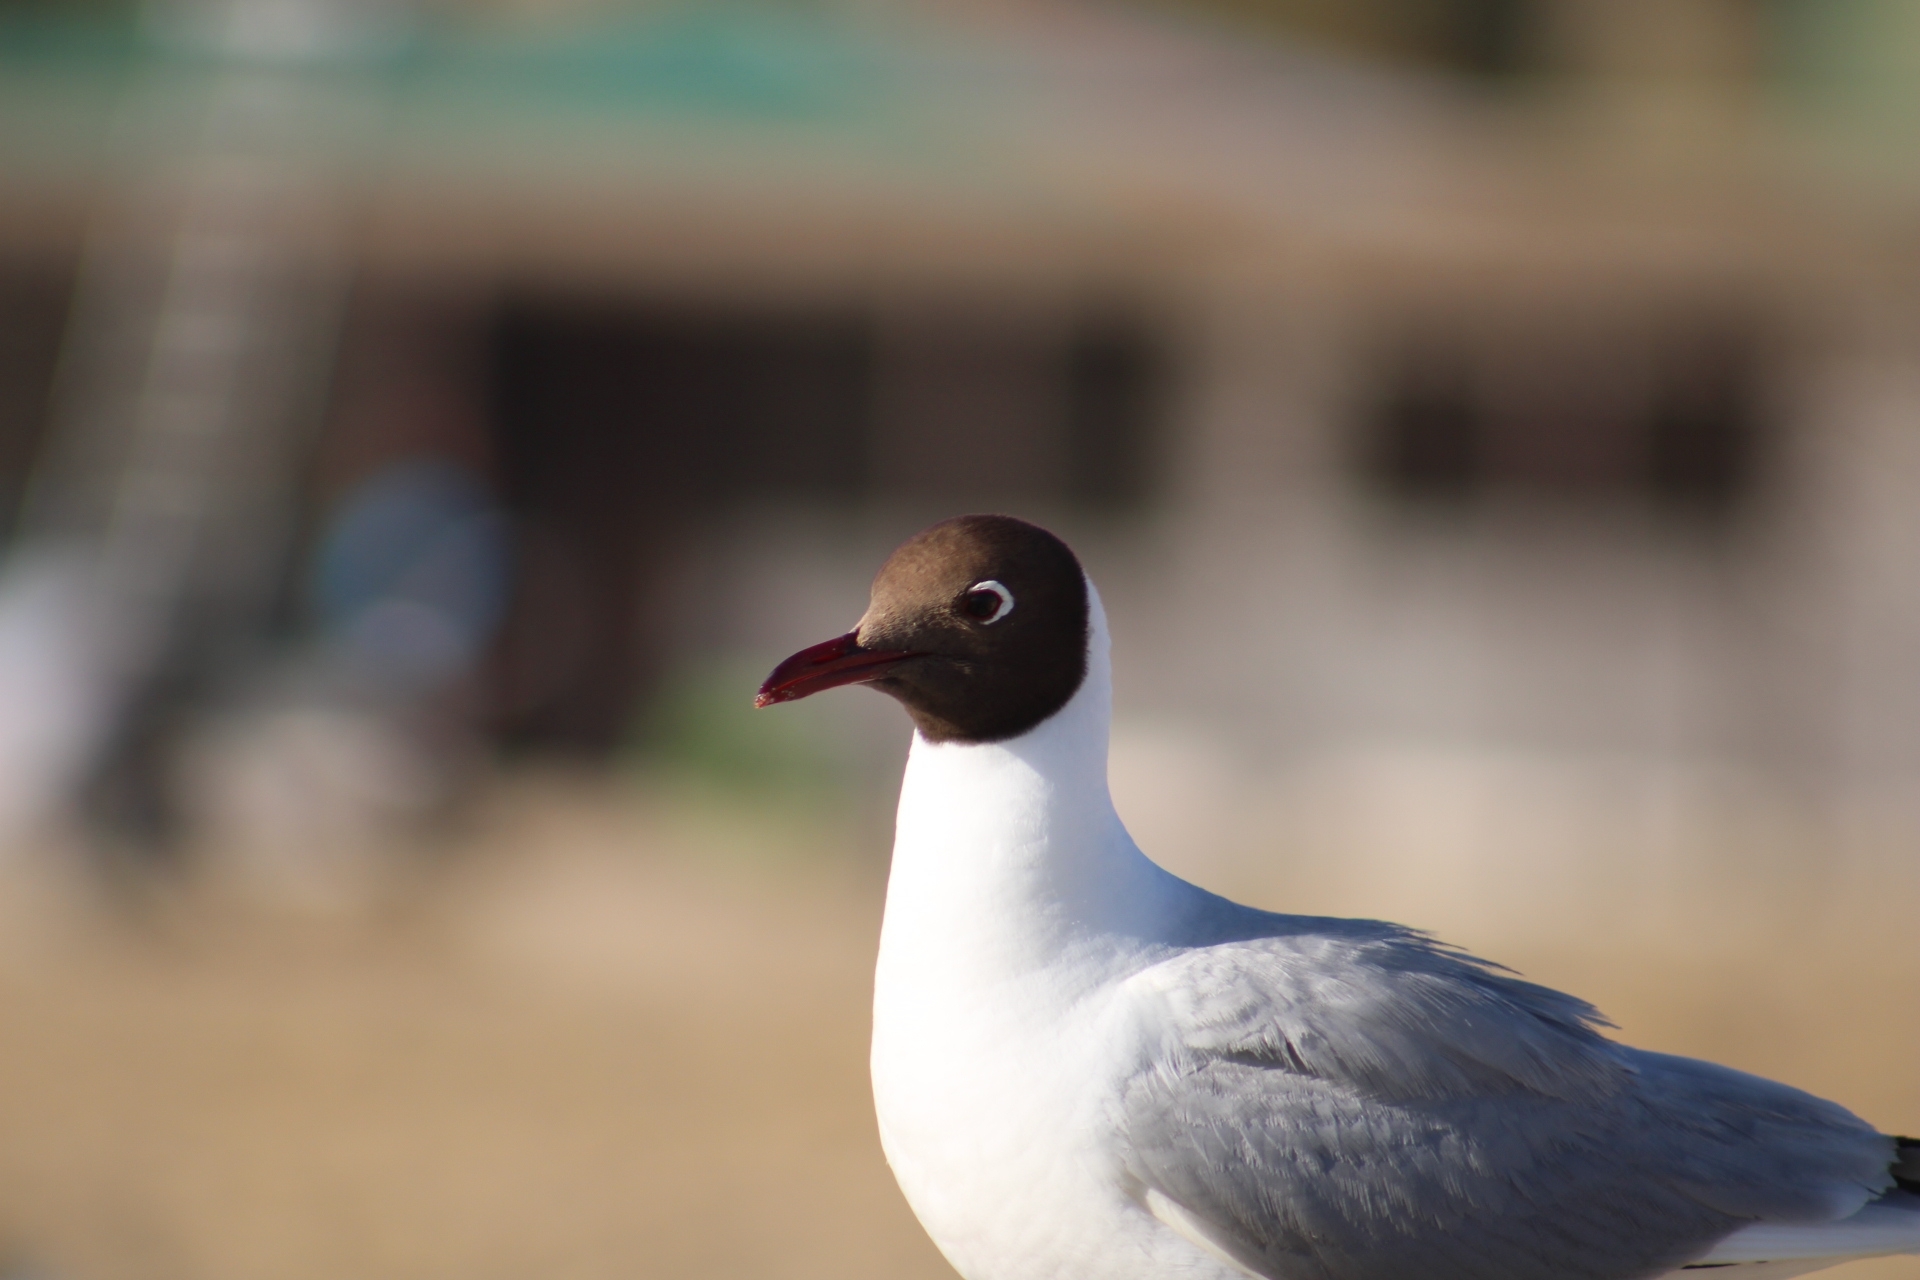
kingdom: Animalia
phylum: Chordata
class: Aves
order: Charadriiformes
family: Laridae
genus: Chroicocephalus
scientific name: Chroicocephalus maculipennis
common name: Brown-hooded gull
